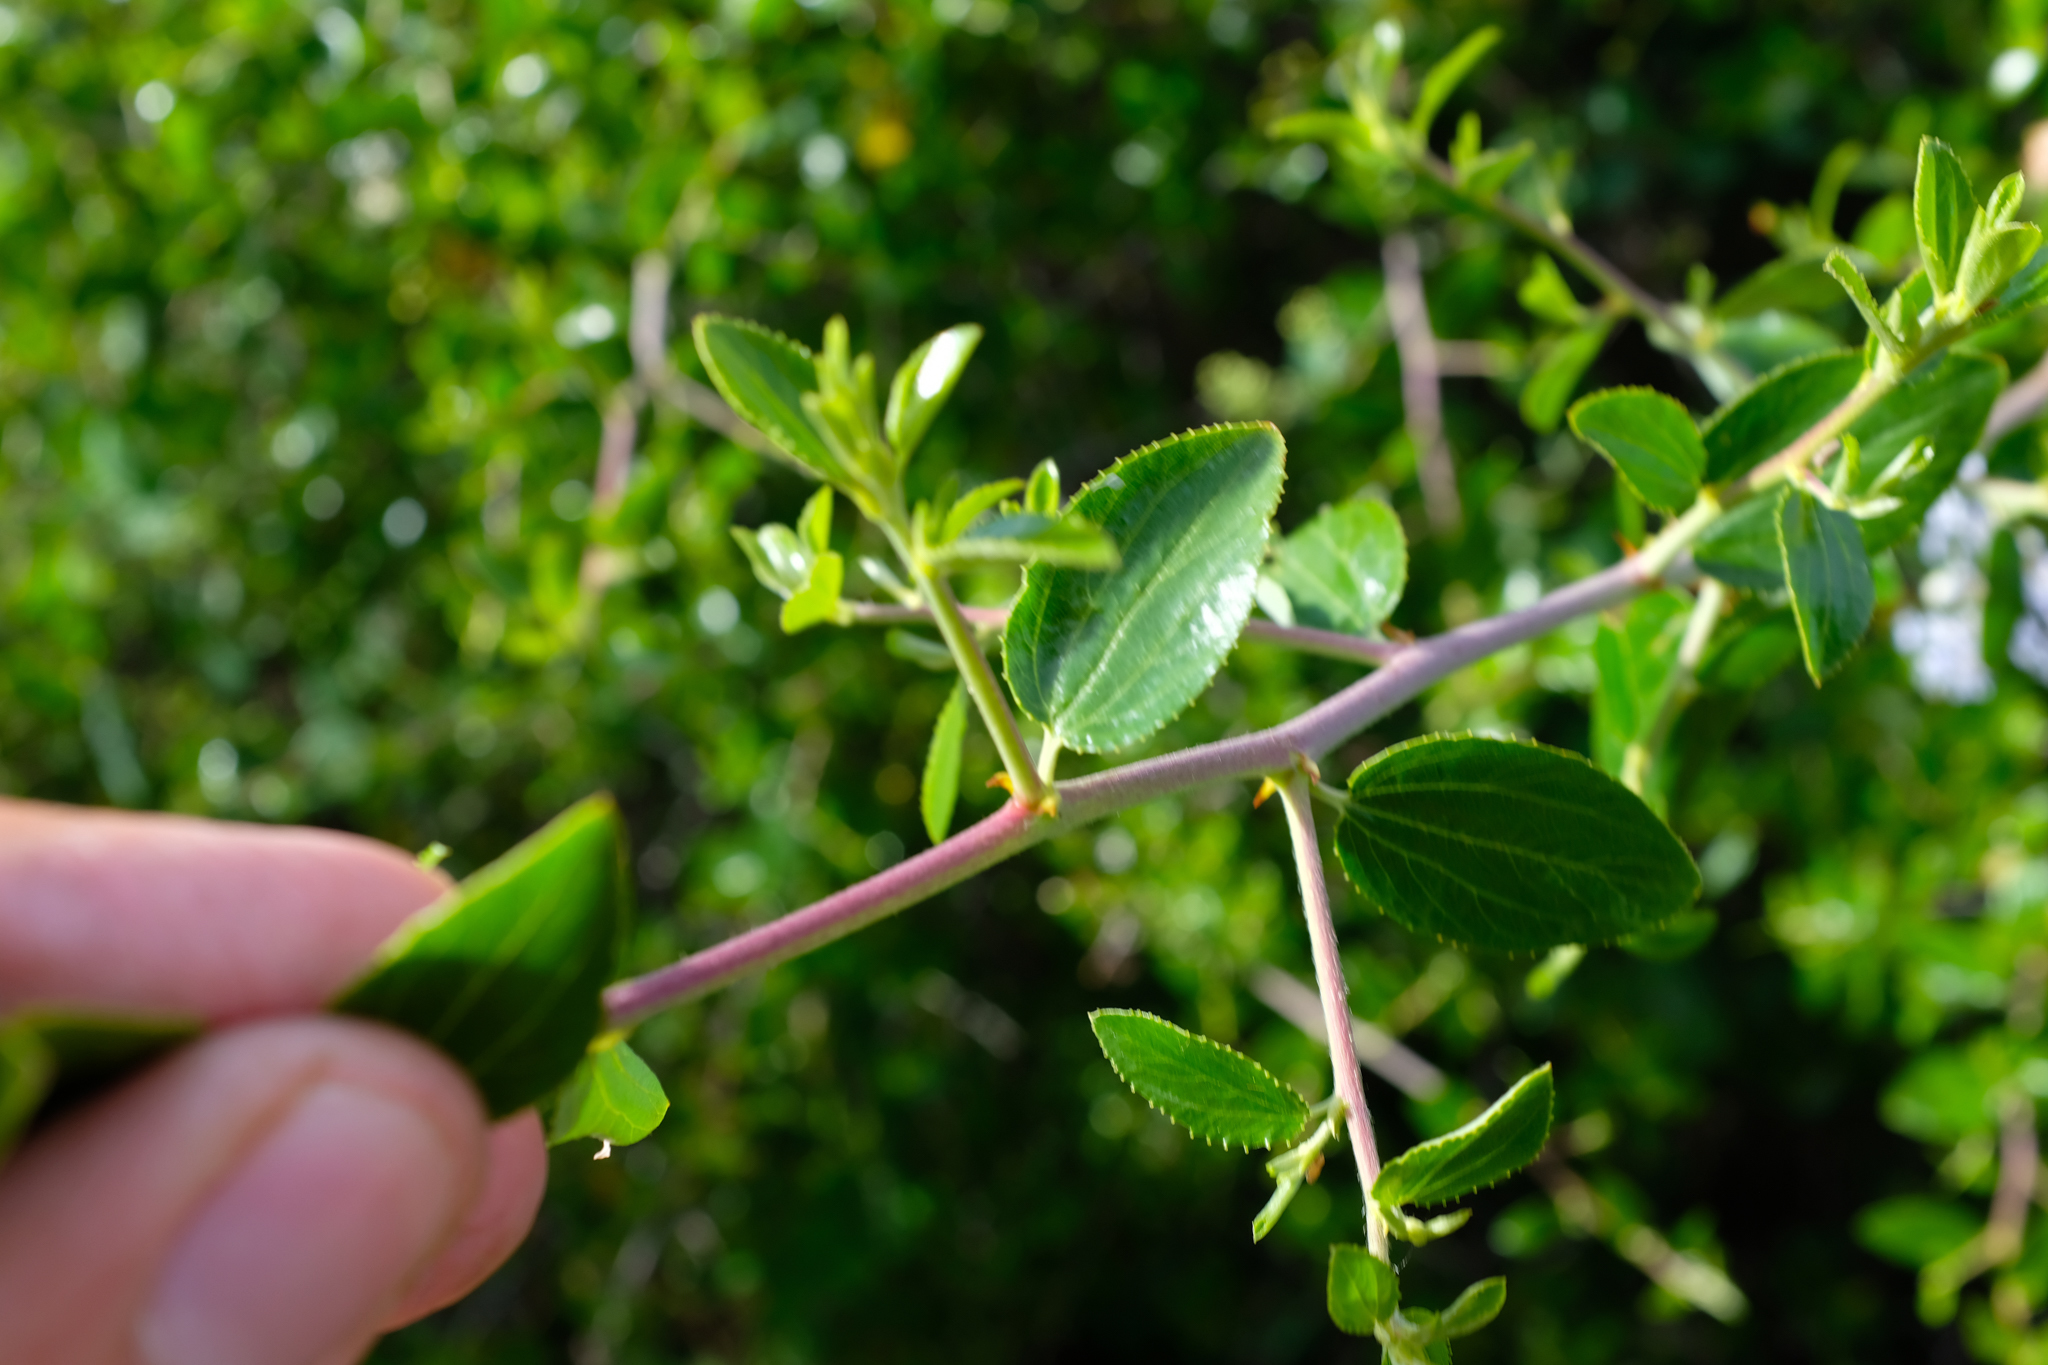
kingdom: Plantae
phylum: Tracheophyta
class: Magnoliopsida
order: Rosales
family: Rhamnaceae
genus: Ceanothus
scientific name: Ceanothus oliganthus
